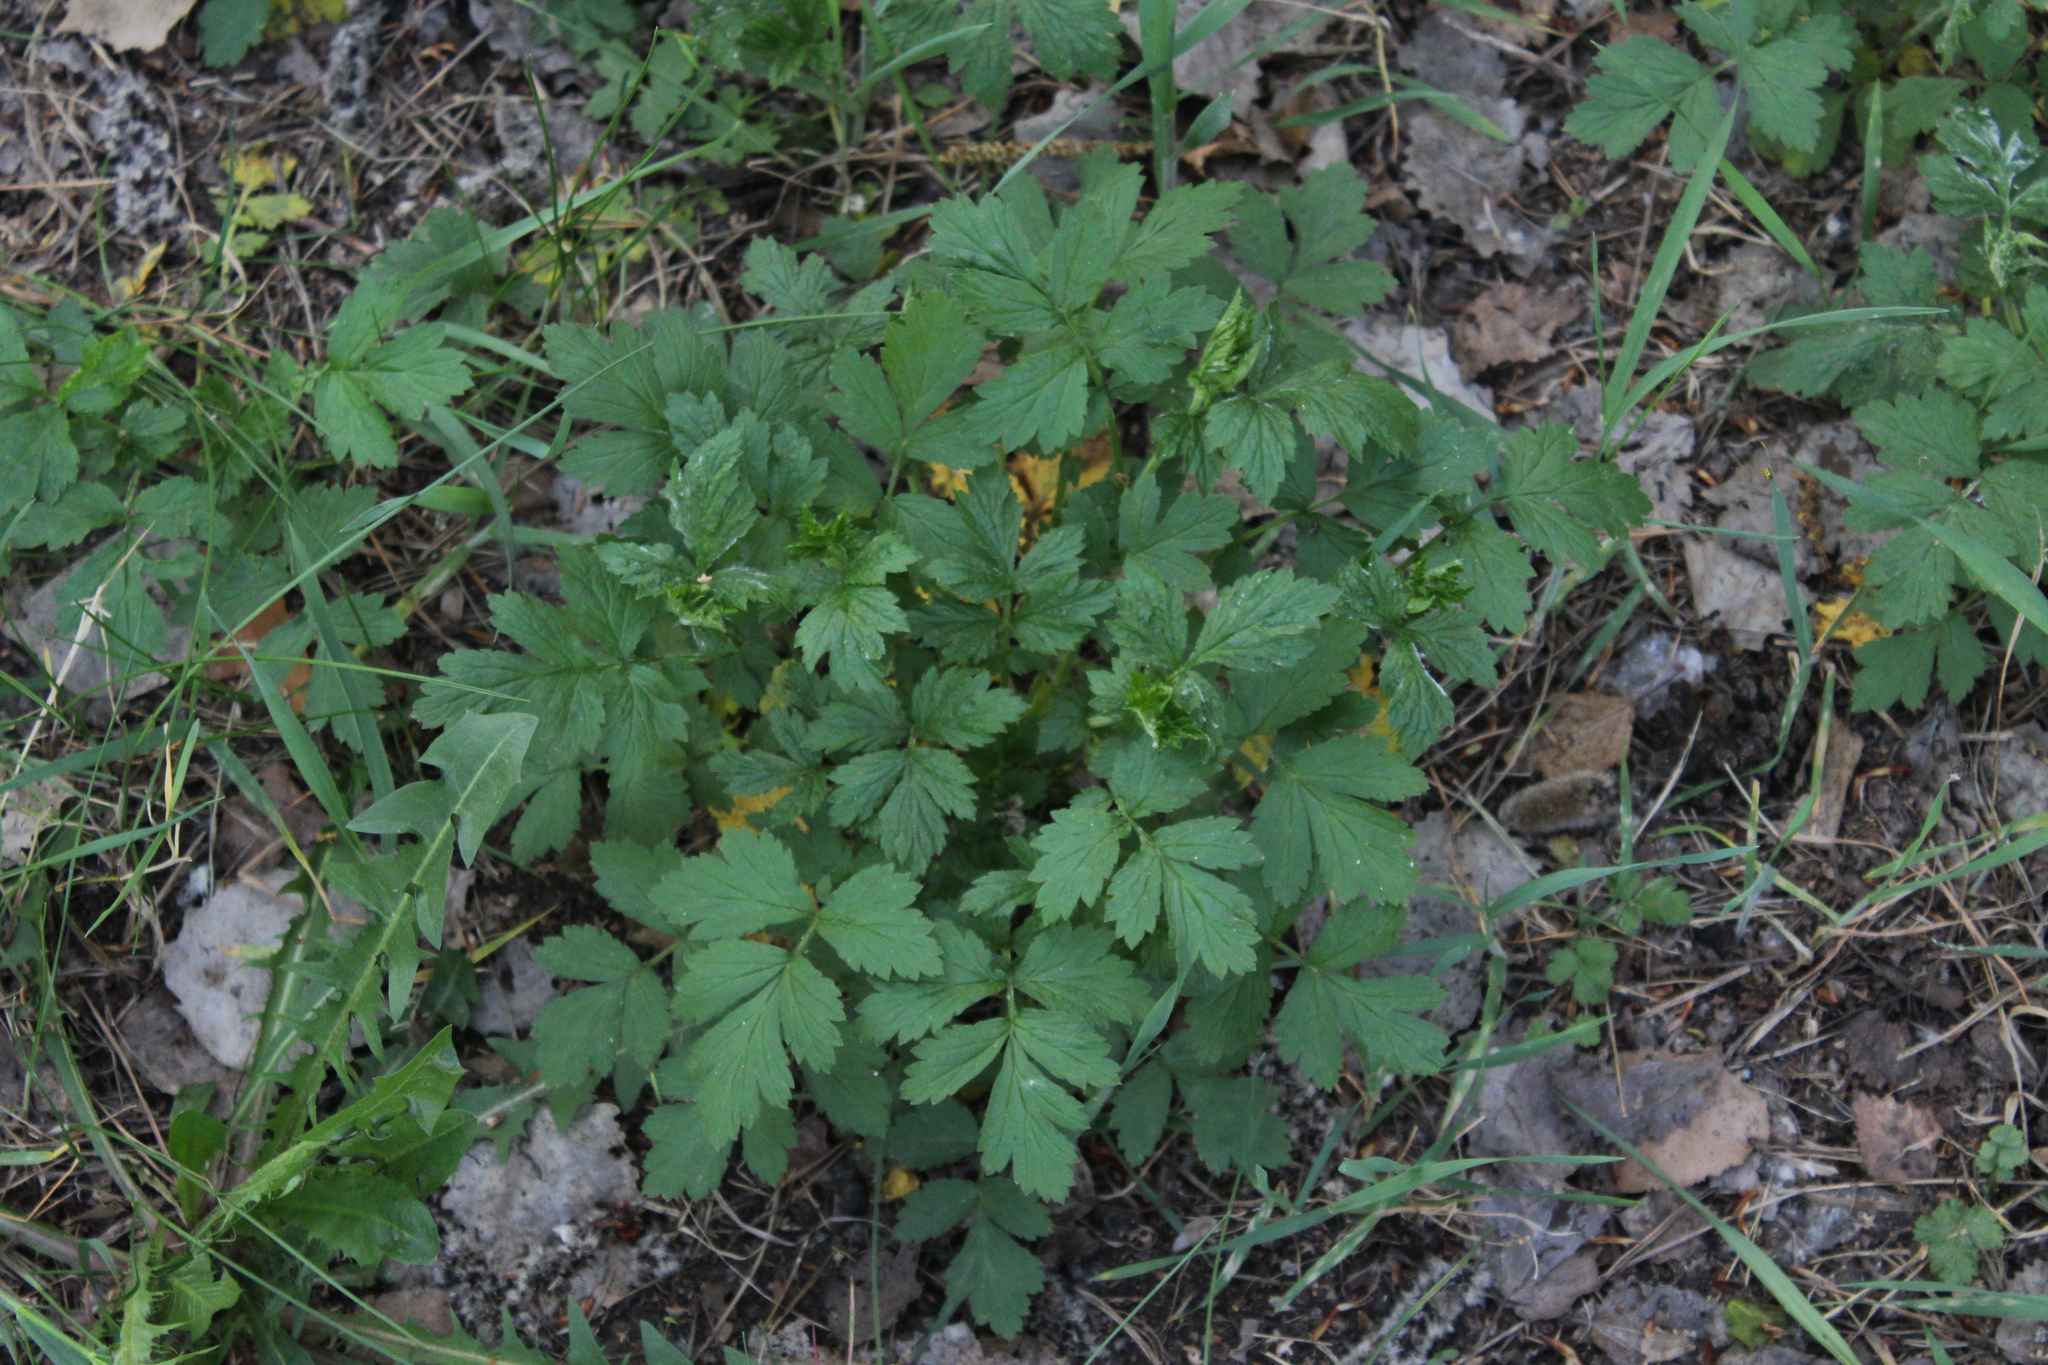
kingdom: Plantae
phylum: Tracheophyta
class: Magnoliopsida
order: Rosales
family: Rosaceae
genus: Geum
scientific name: Geum
